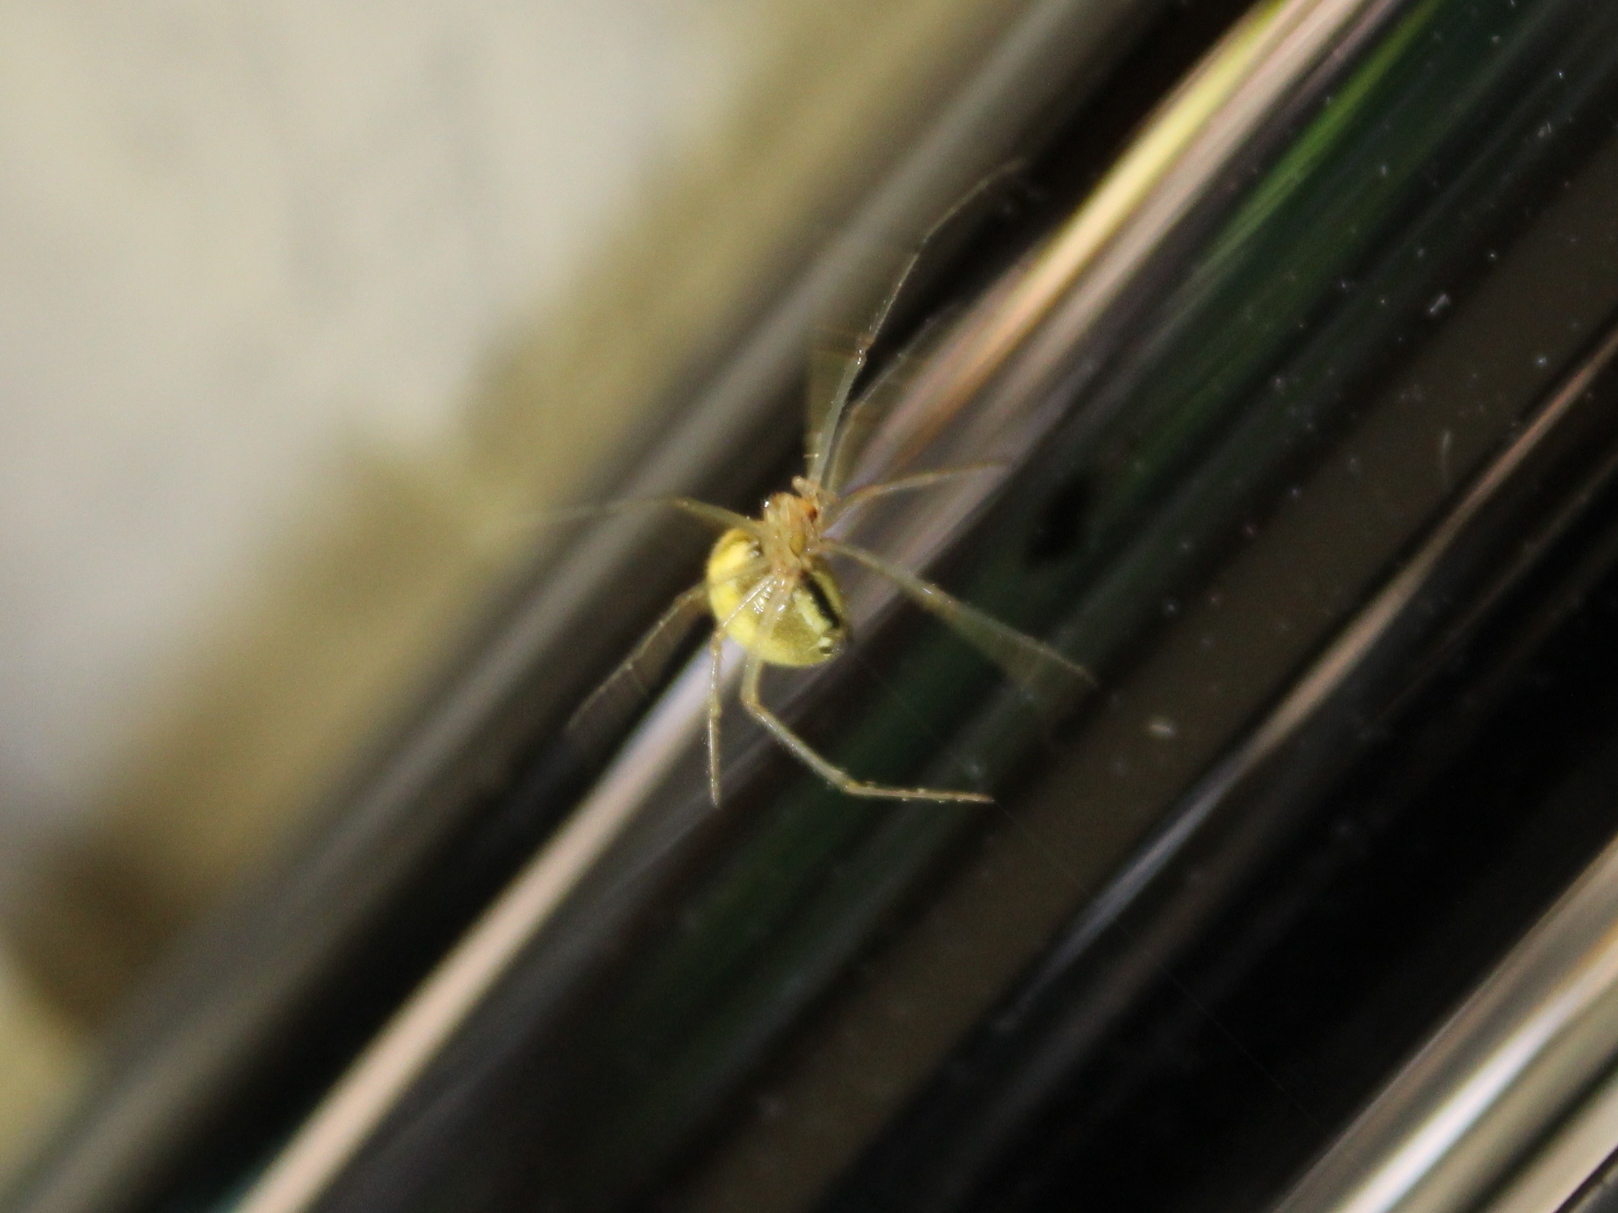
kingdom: Animalia
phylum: Arthropoda
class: Arachnida
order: Araneae
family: Theridiidae
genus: Enoplognatha
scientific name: Enoplognatha ovata
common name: Common candy-striped spider
